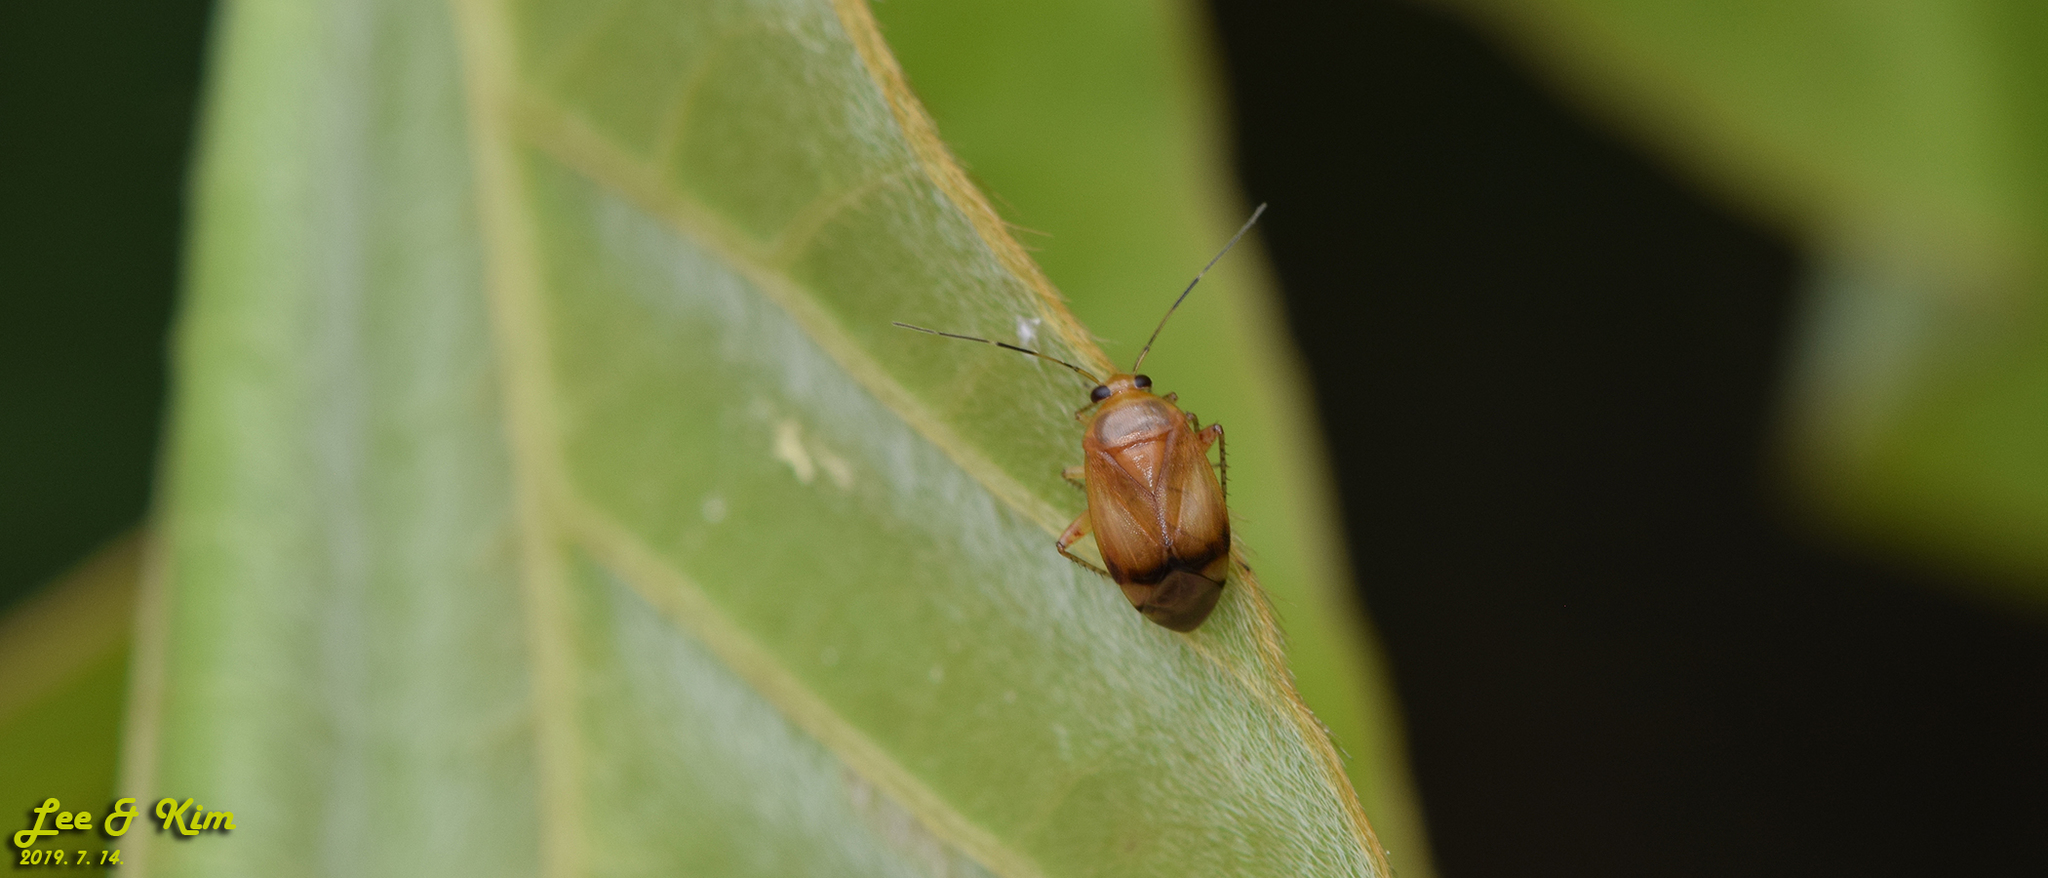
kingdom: Animalia
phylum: Arthropoda
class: Insecta
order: Hemiptera
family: Miridae
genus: Apolygus
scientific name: Apolygus hilaris
